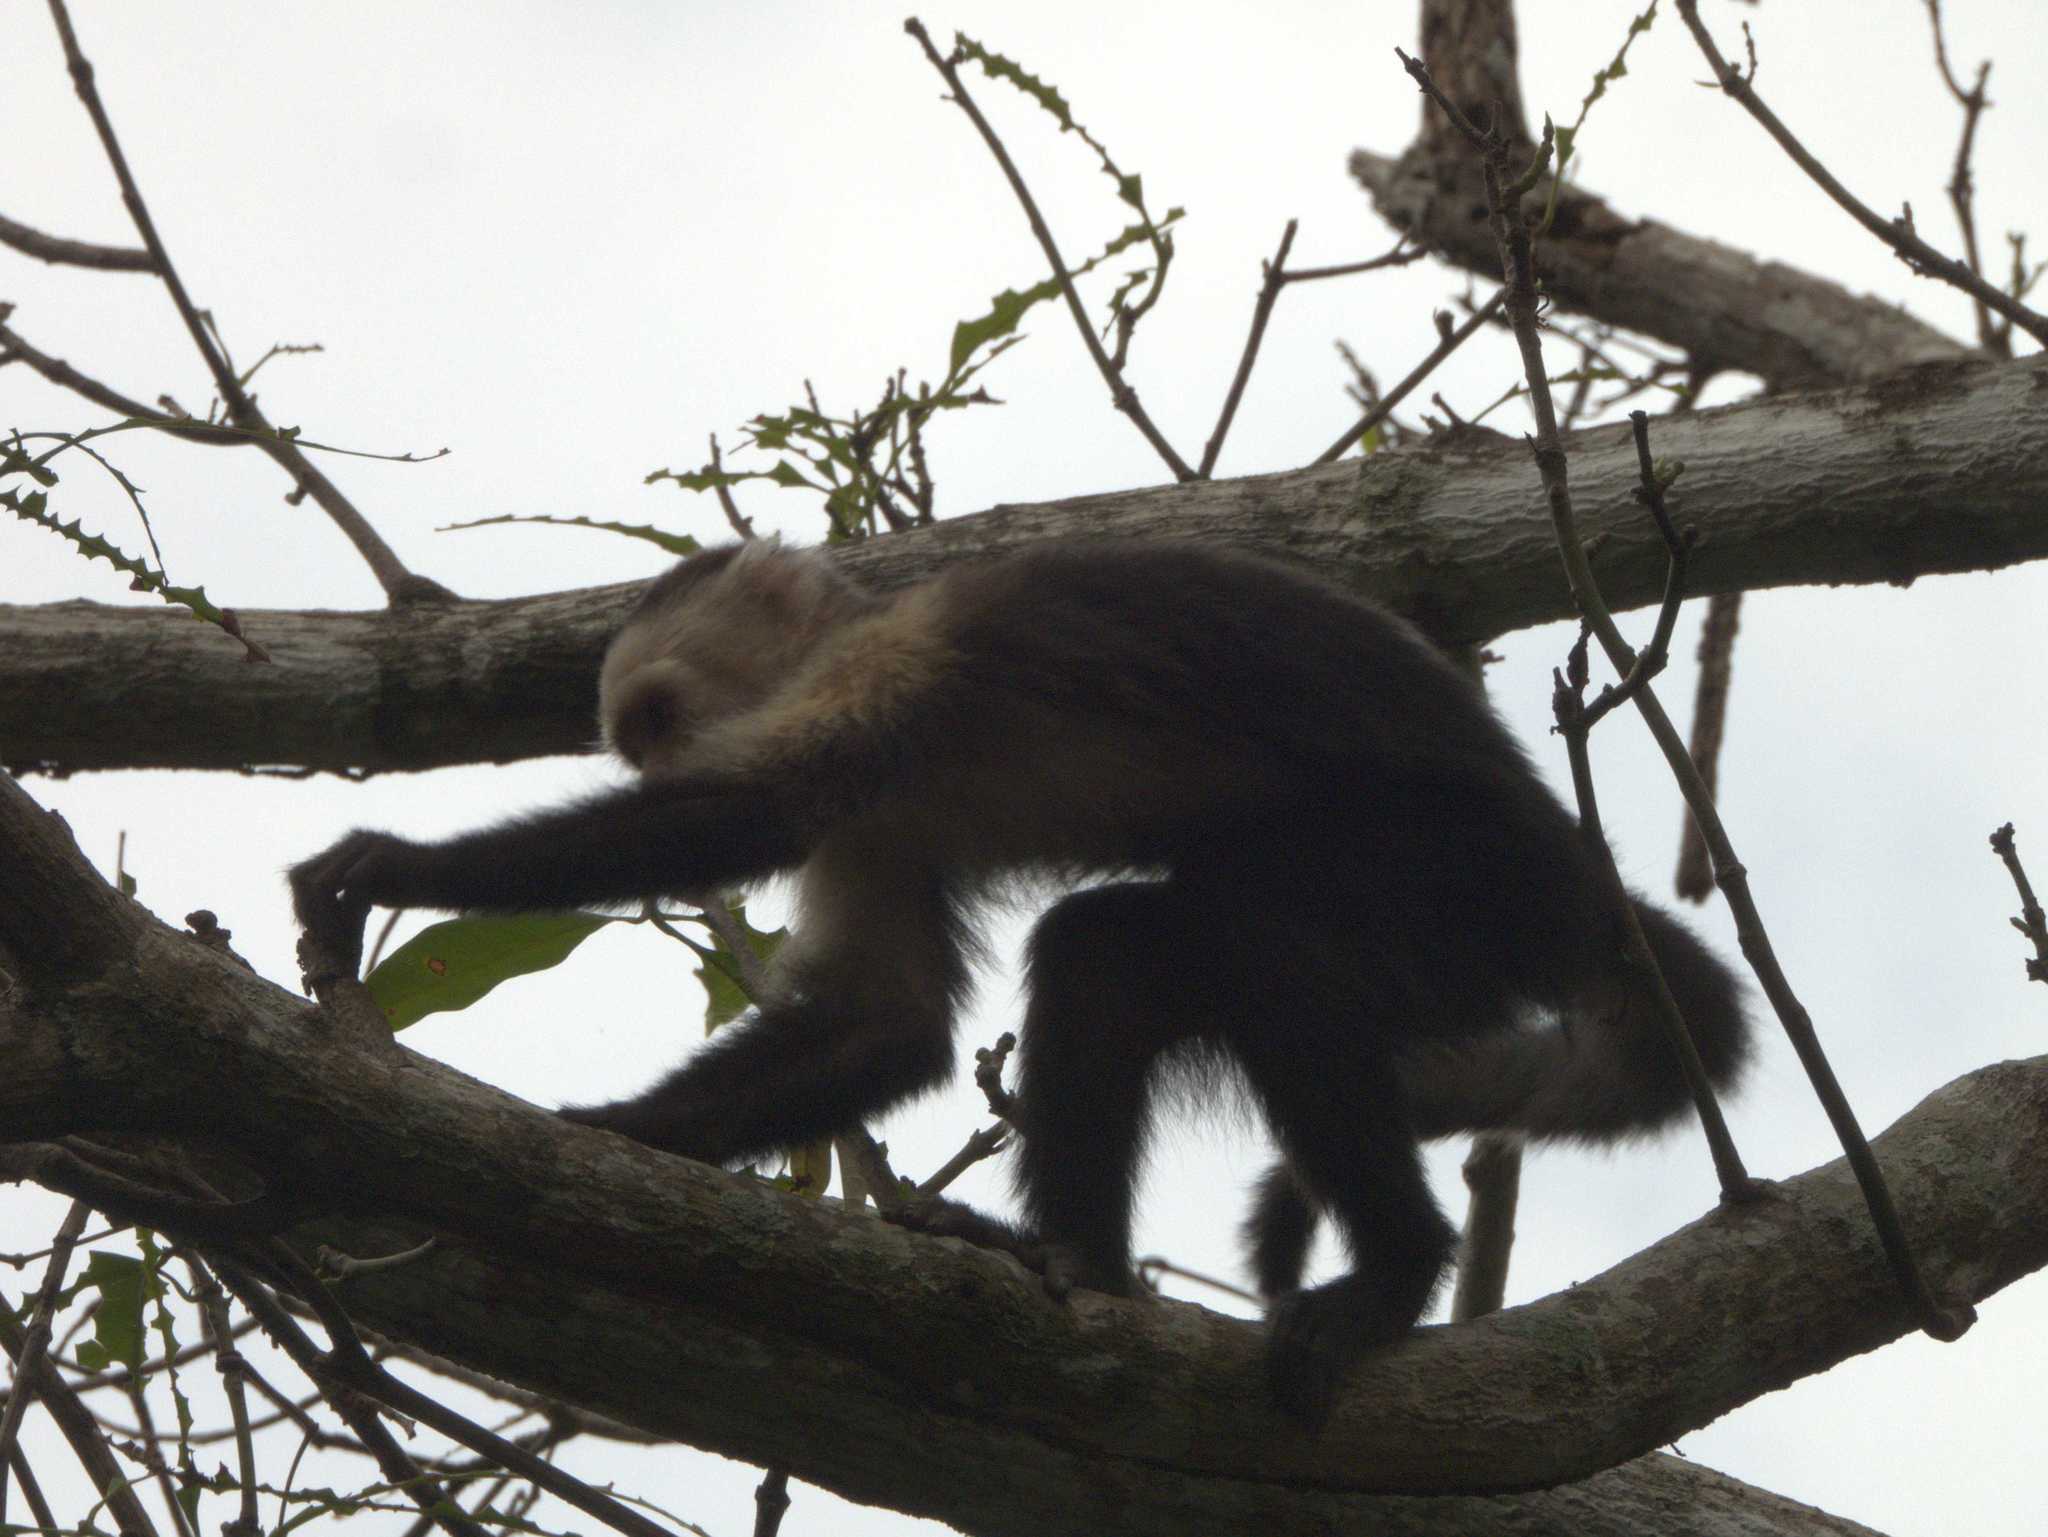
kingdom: Animalia
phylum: Chordata
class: Mammalia
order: Primates
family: Cebidae
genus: Cebus
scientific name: Cebus imitator
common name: Panamanian white-faced capuchin
